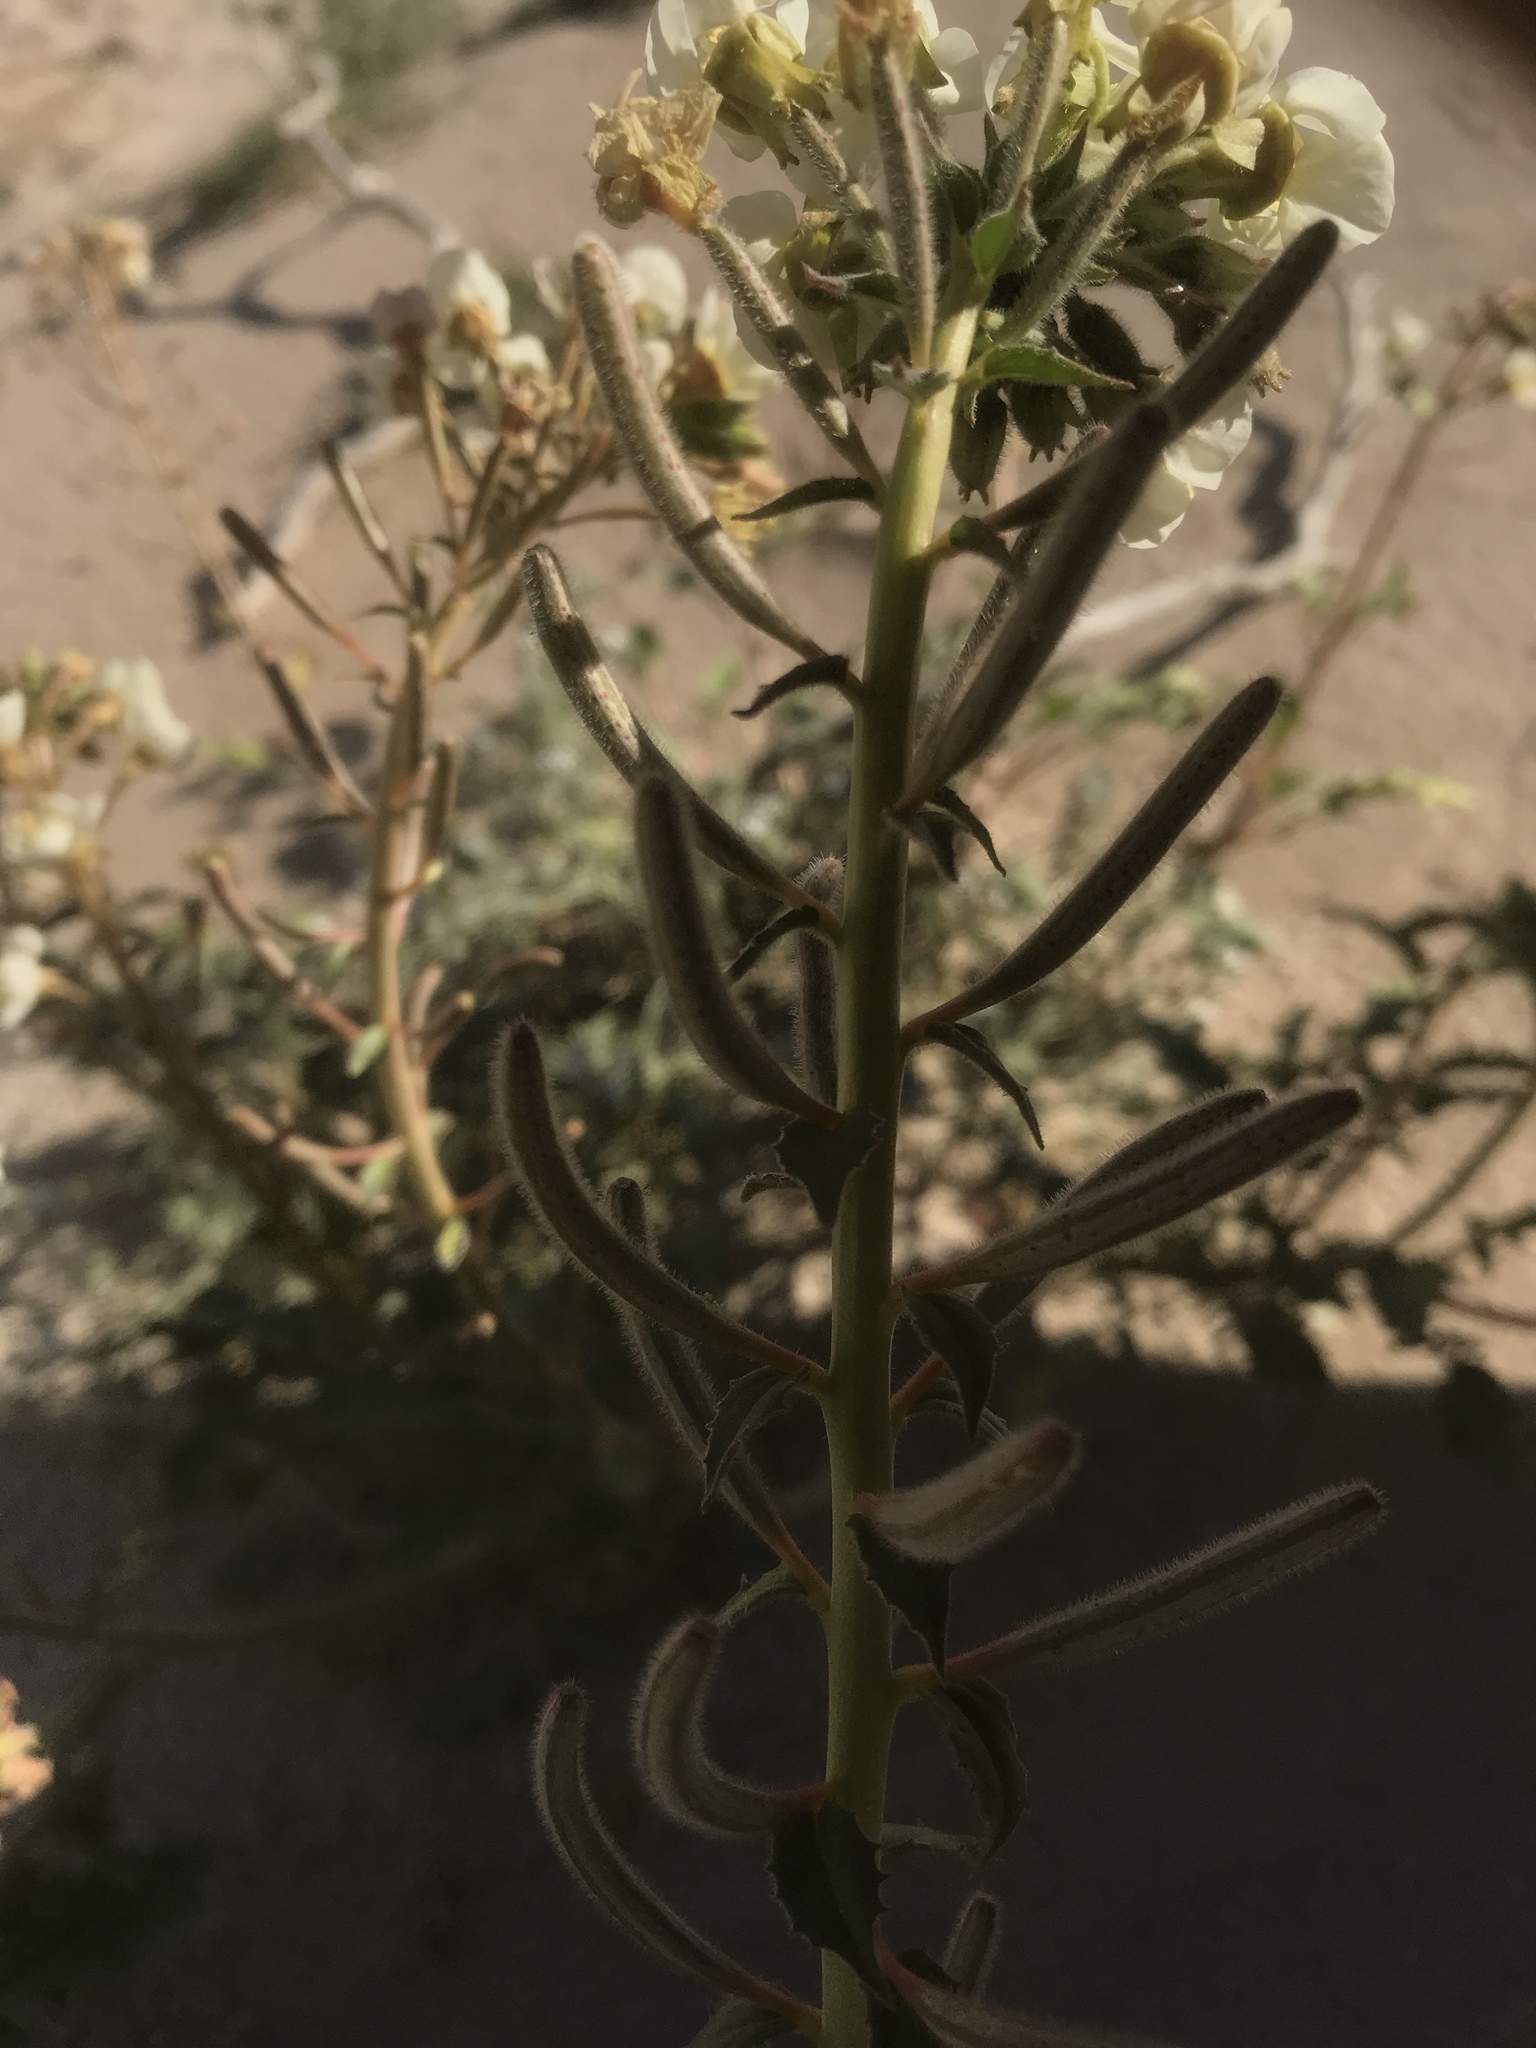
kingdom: Plantae
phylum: Tracheophyta
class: Magnoliopsida
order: Myrtales
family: Onagraceae
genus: Chylismia
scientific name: Chylismia claviformis
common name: Browneyes
